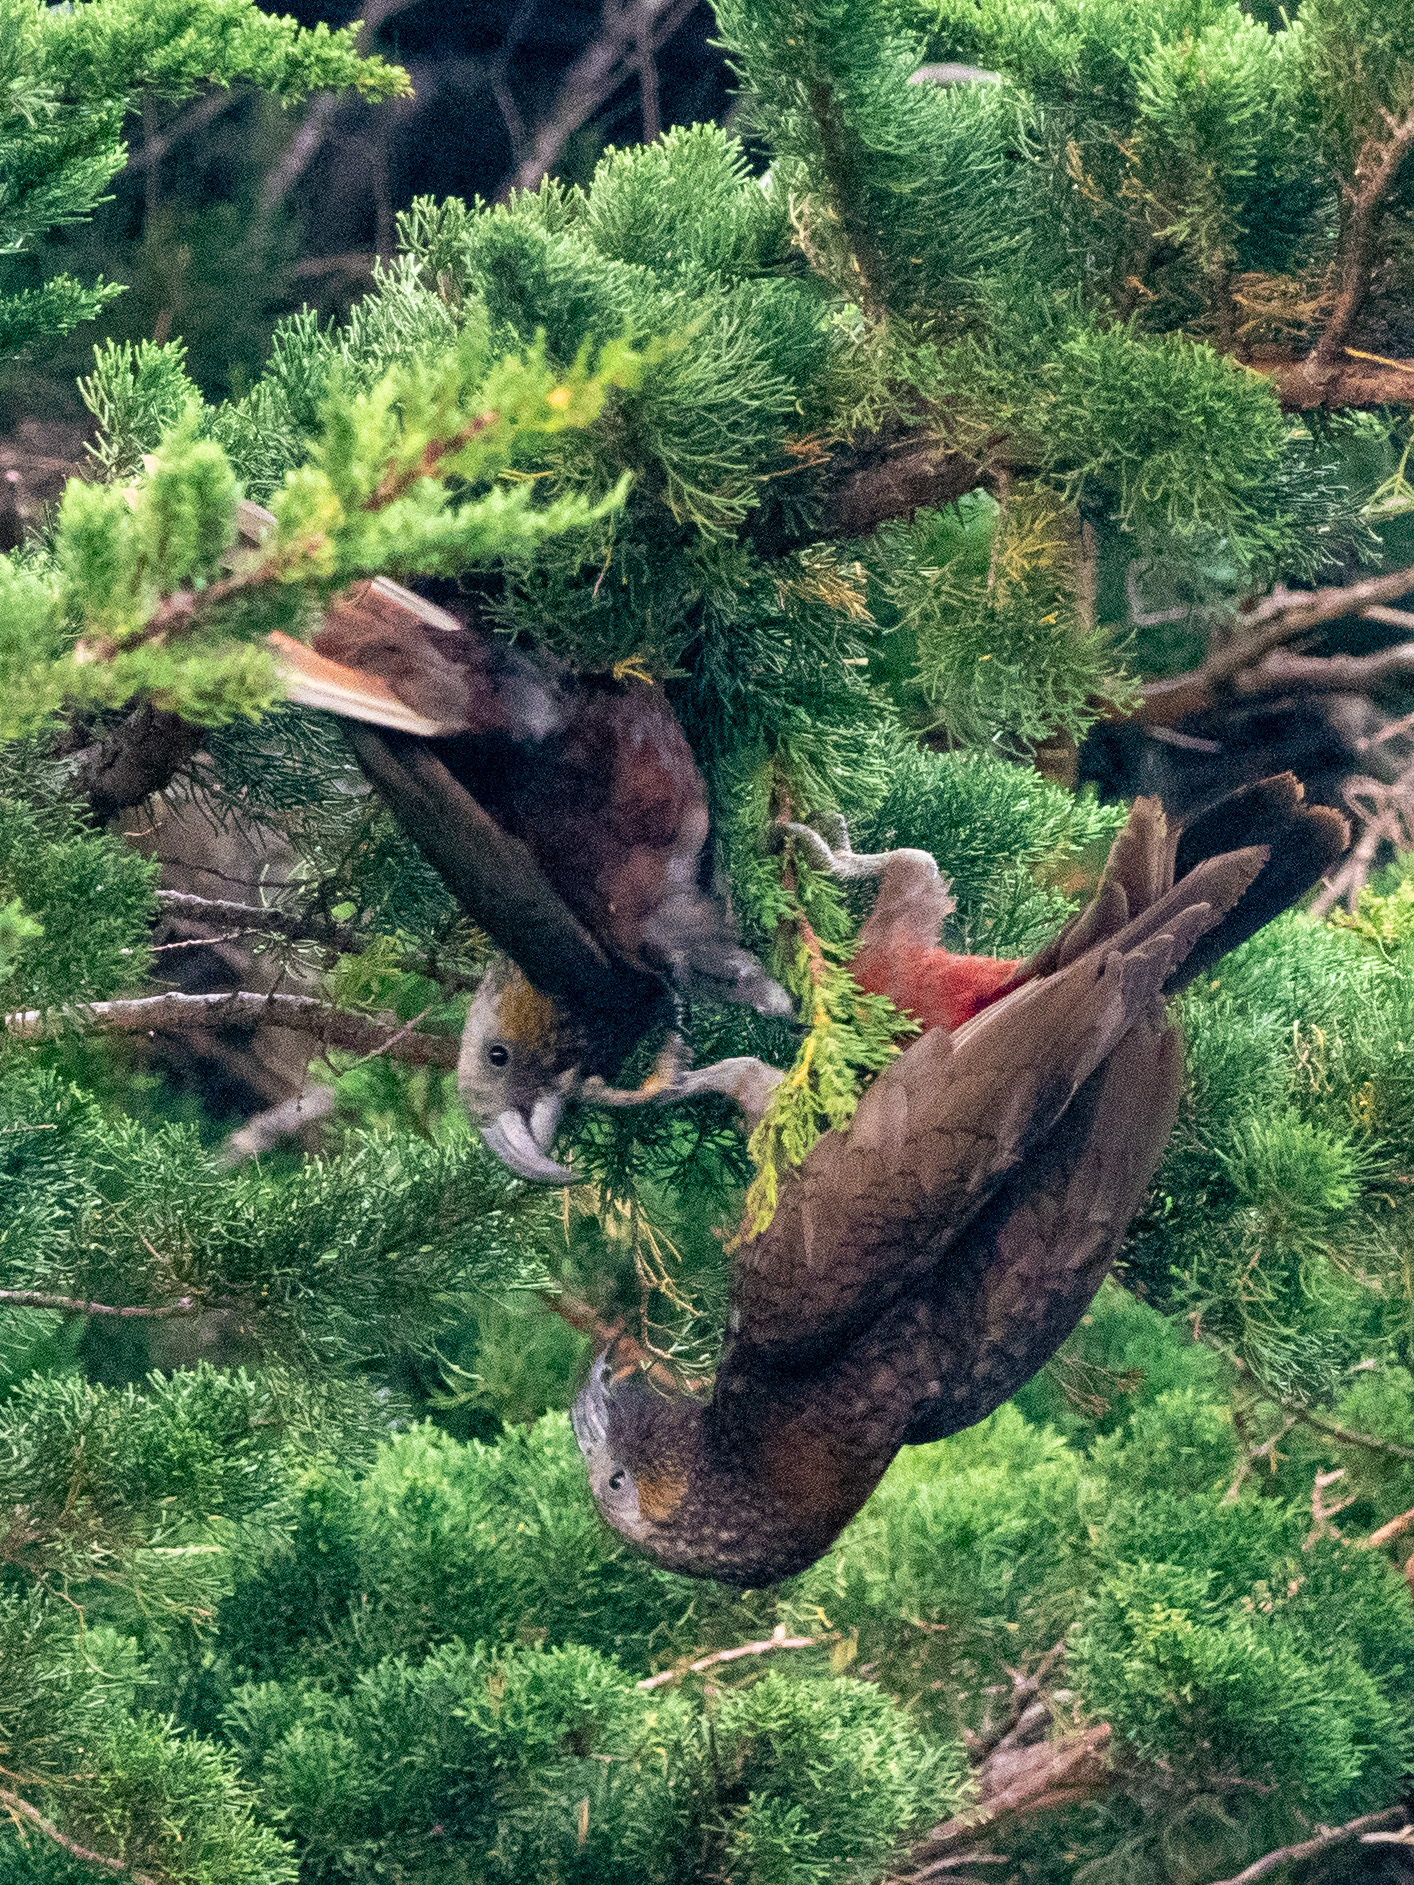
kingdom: Animalia
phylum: Chordata
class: Aves
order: Psittaciformes
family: Psittacidae
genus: Nestor
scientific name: Nestor meridionalis
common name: New zealand kaka
